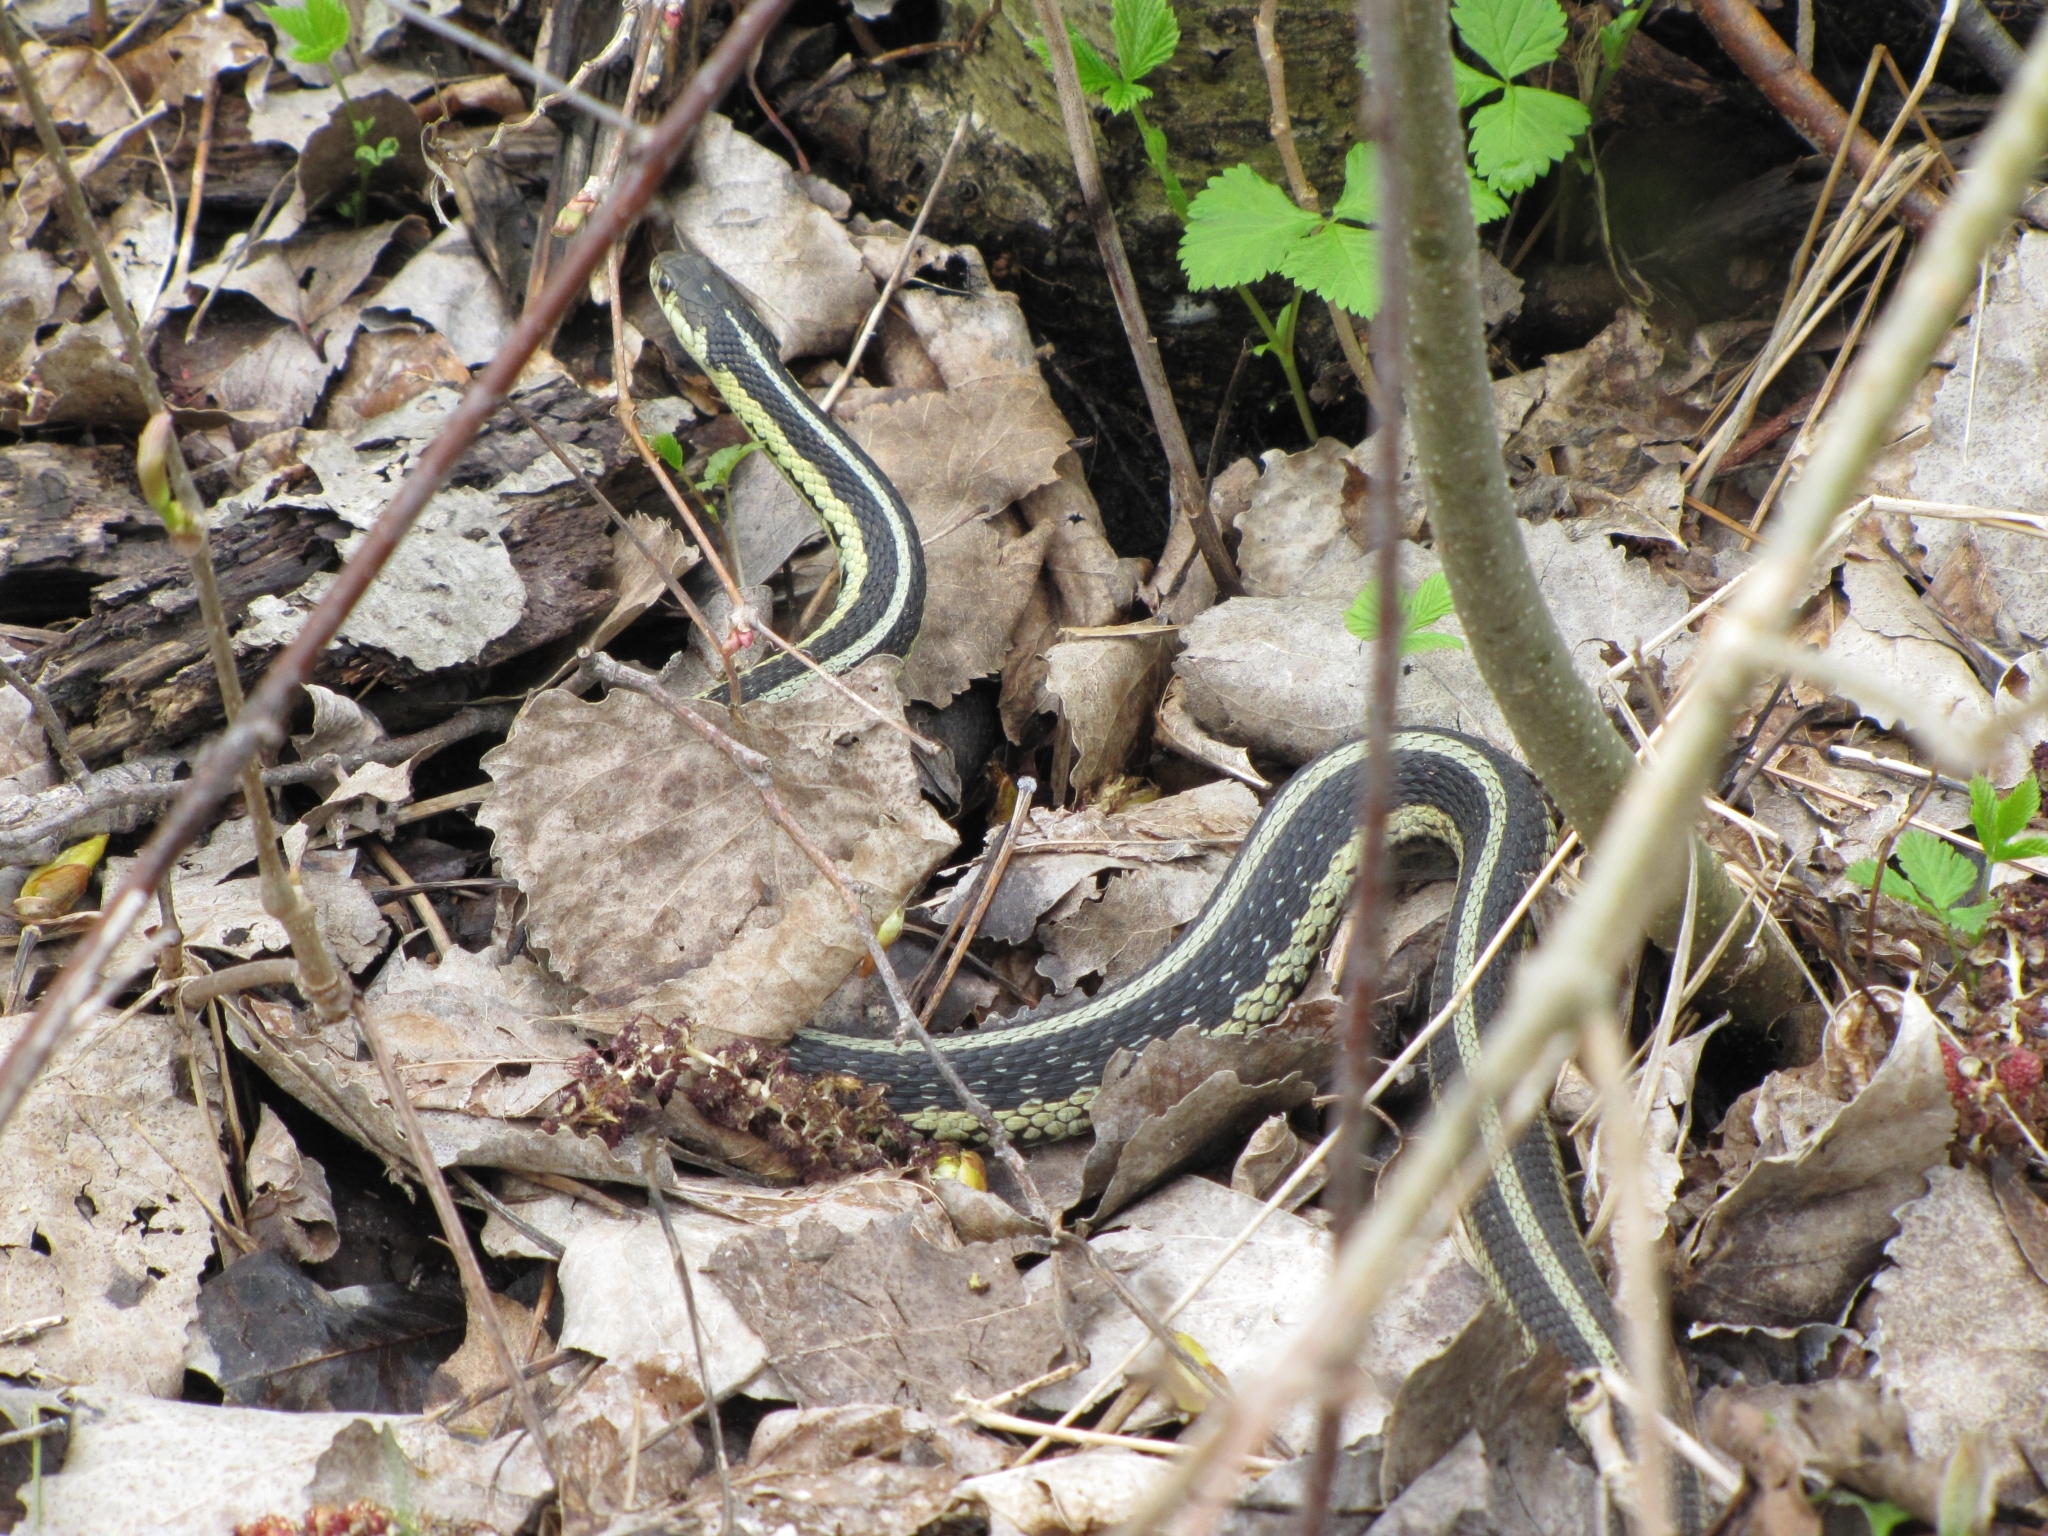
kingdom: Animalia
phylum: Chordata
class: Squamata
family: Colubridae
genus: Thamnophis
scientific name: Thamnophis sirtalis
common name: Common garter snake
